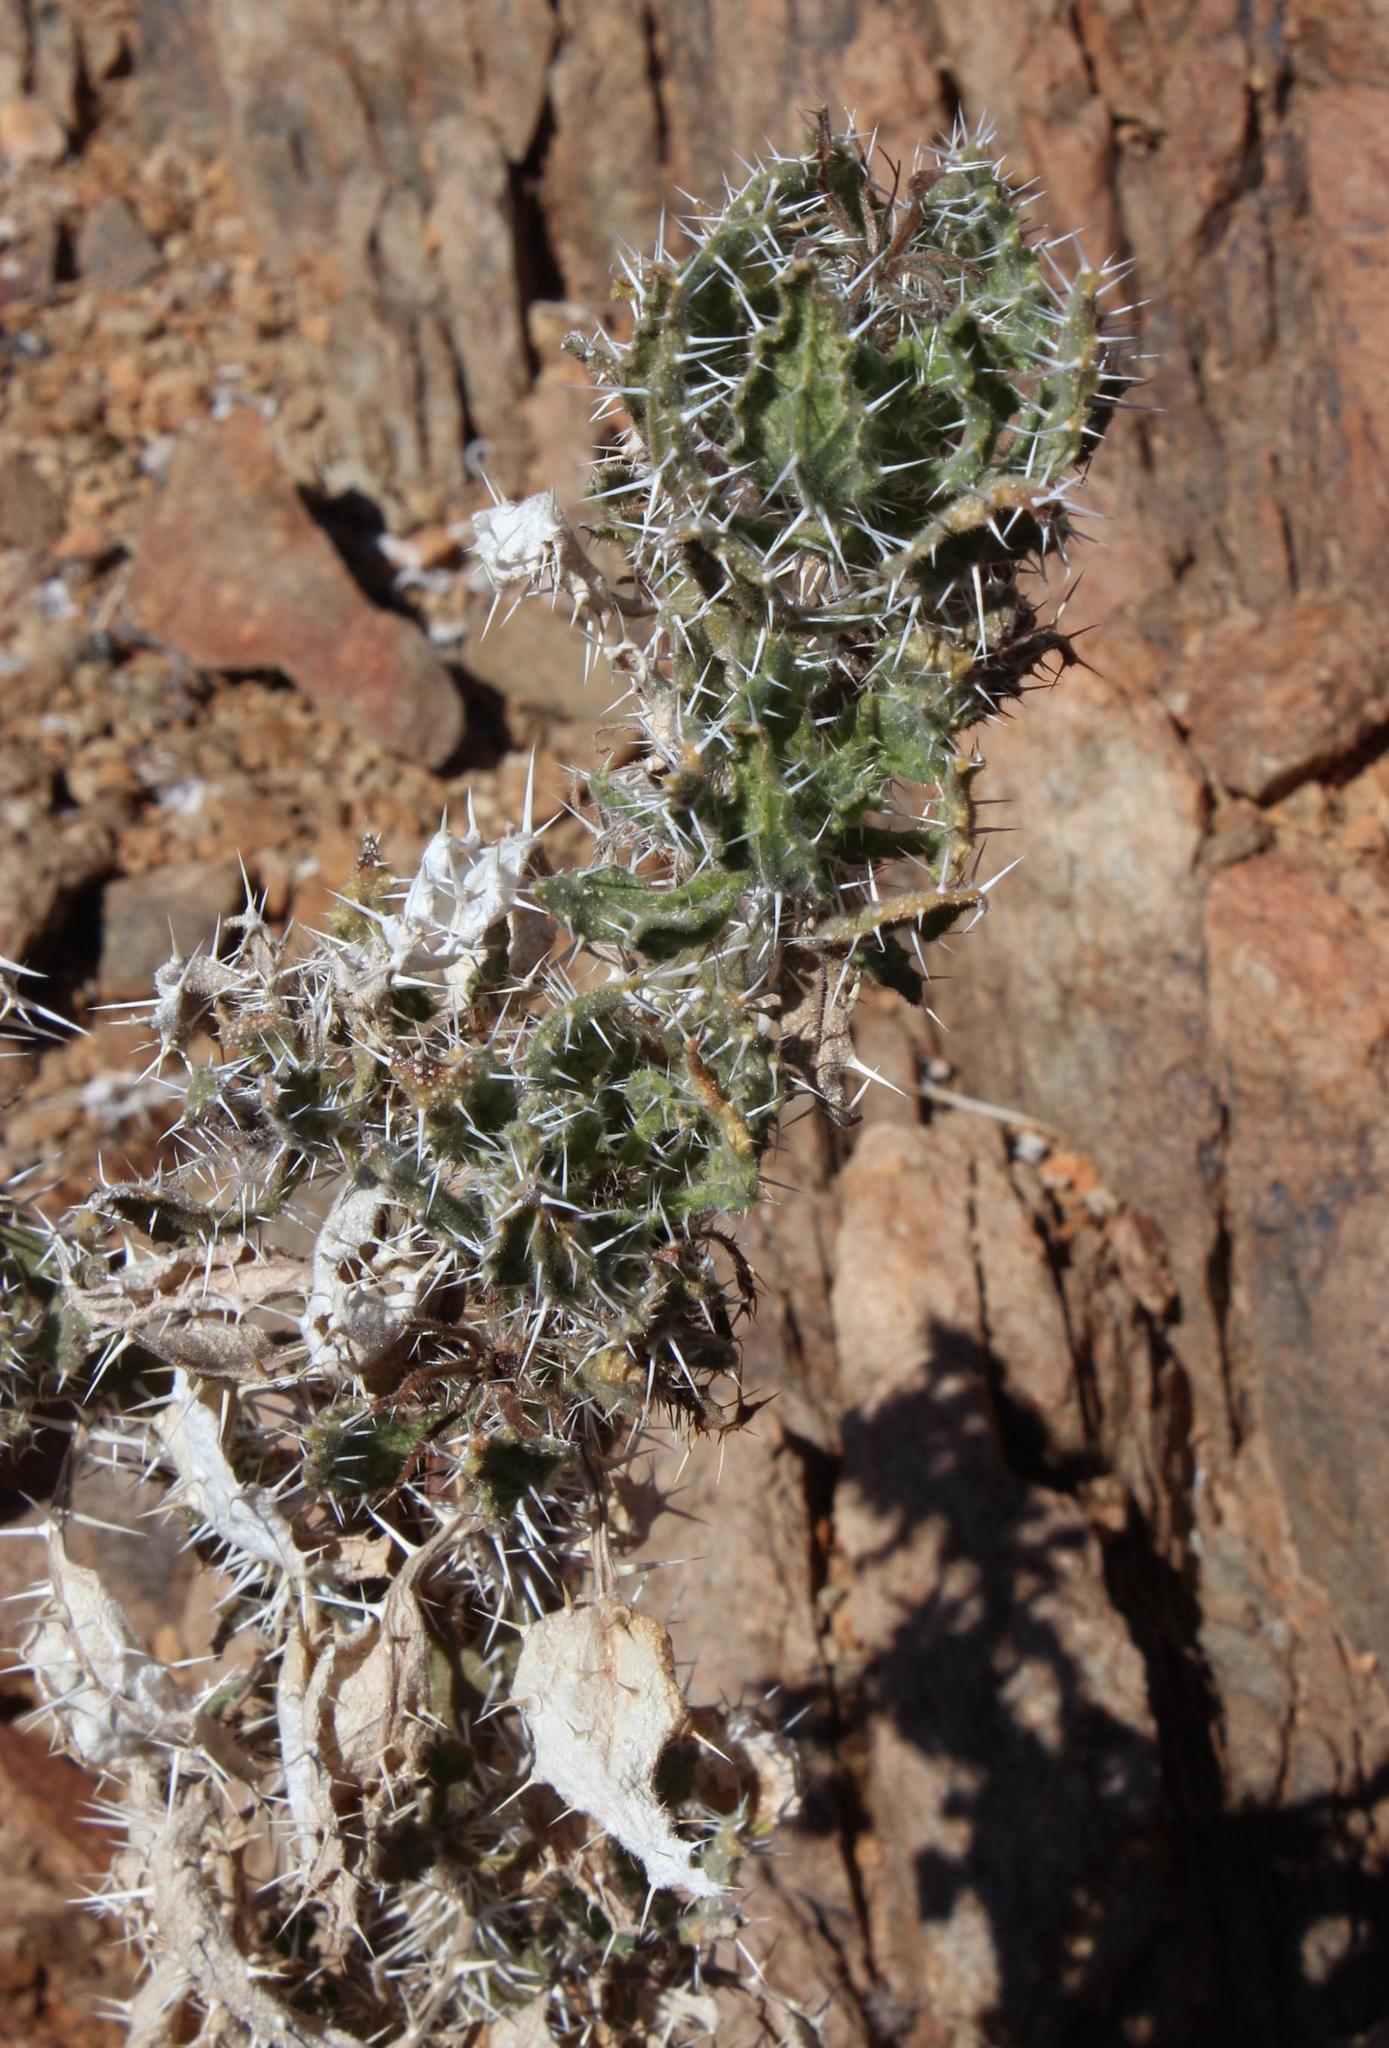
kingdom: Plantae
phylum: Tracheophyta
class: Magnoliopsida
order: Boraginales
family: Boraginaceae
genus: Codon
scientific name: Codon royenii
